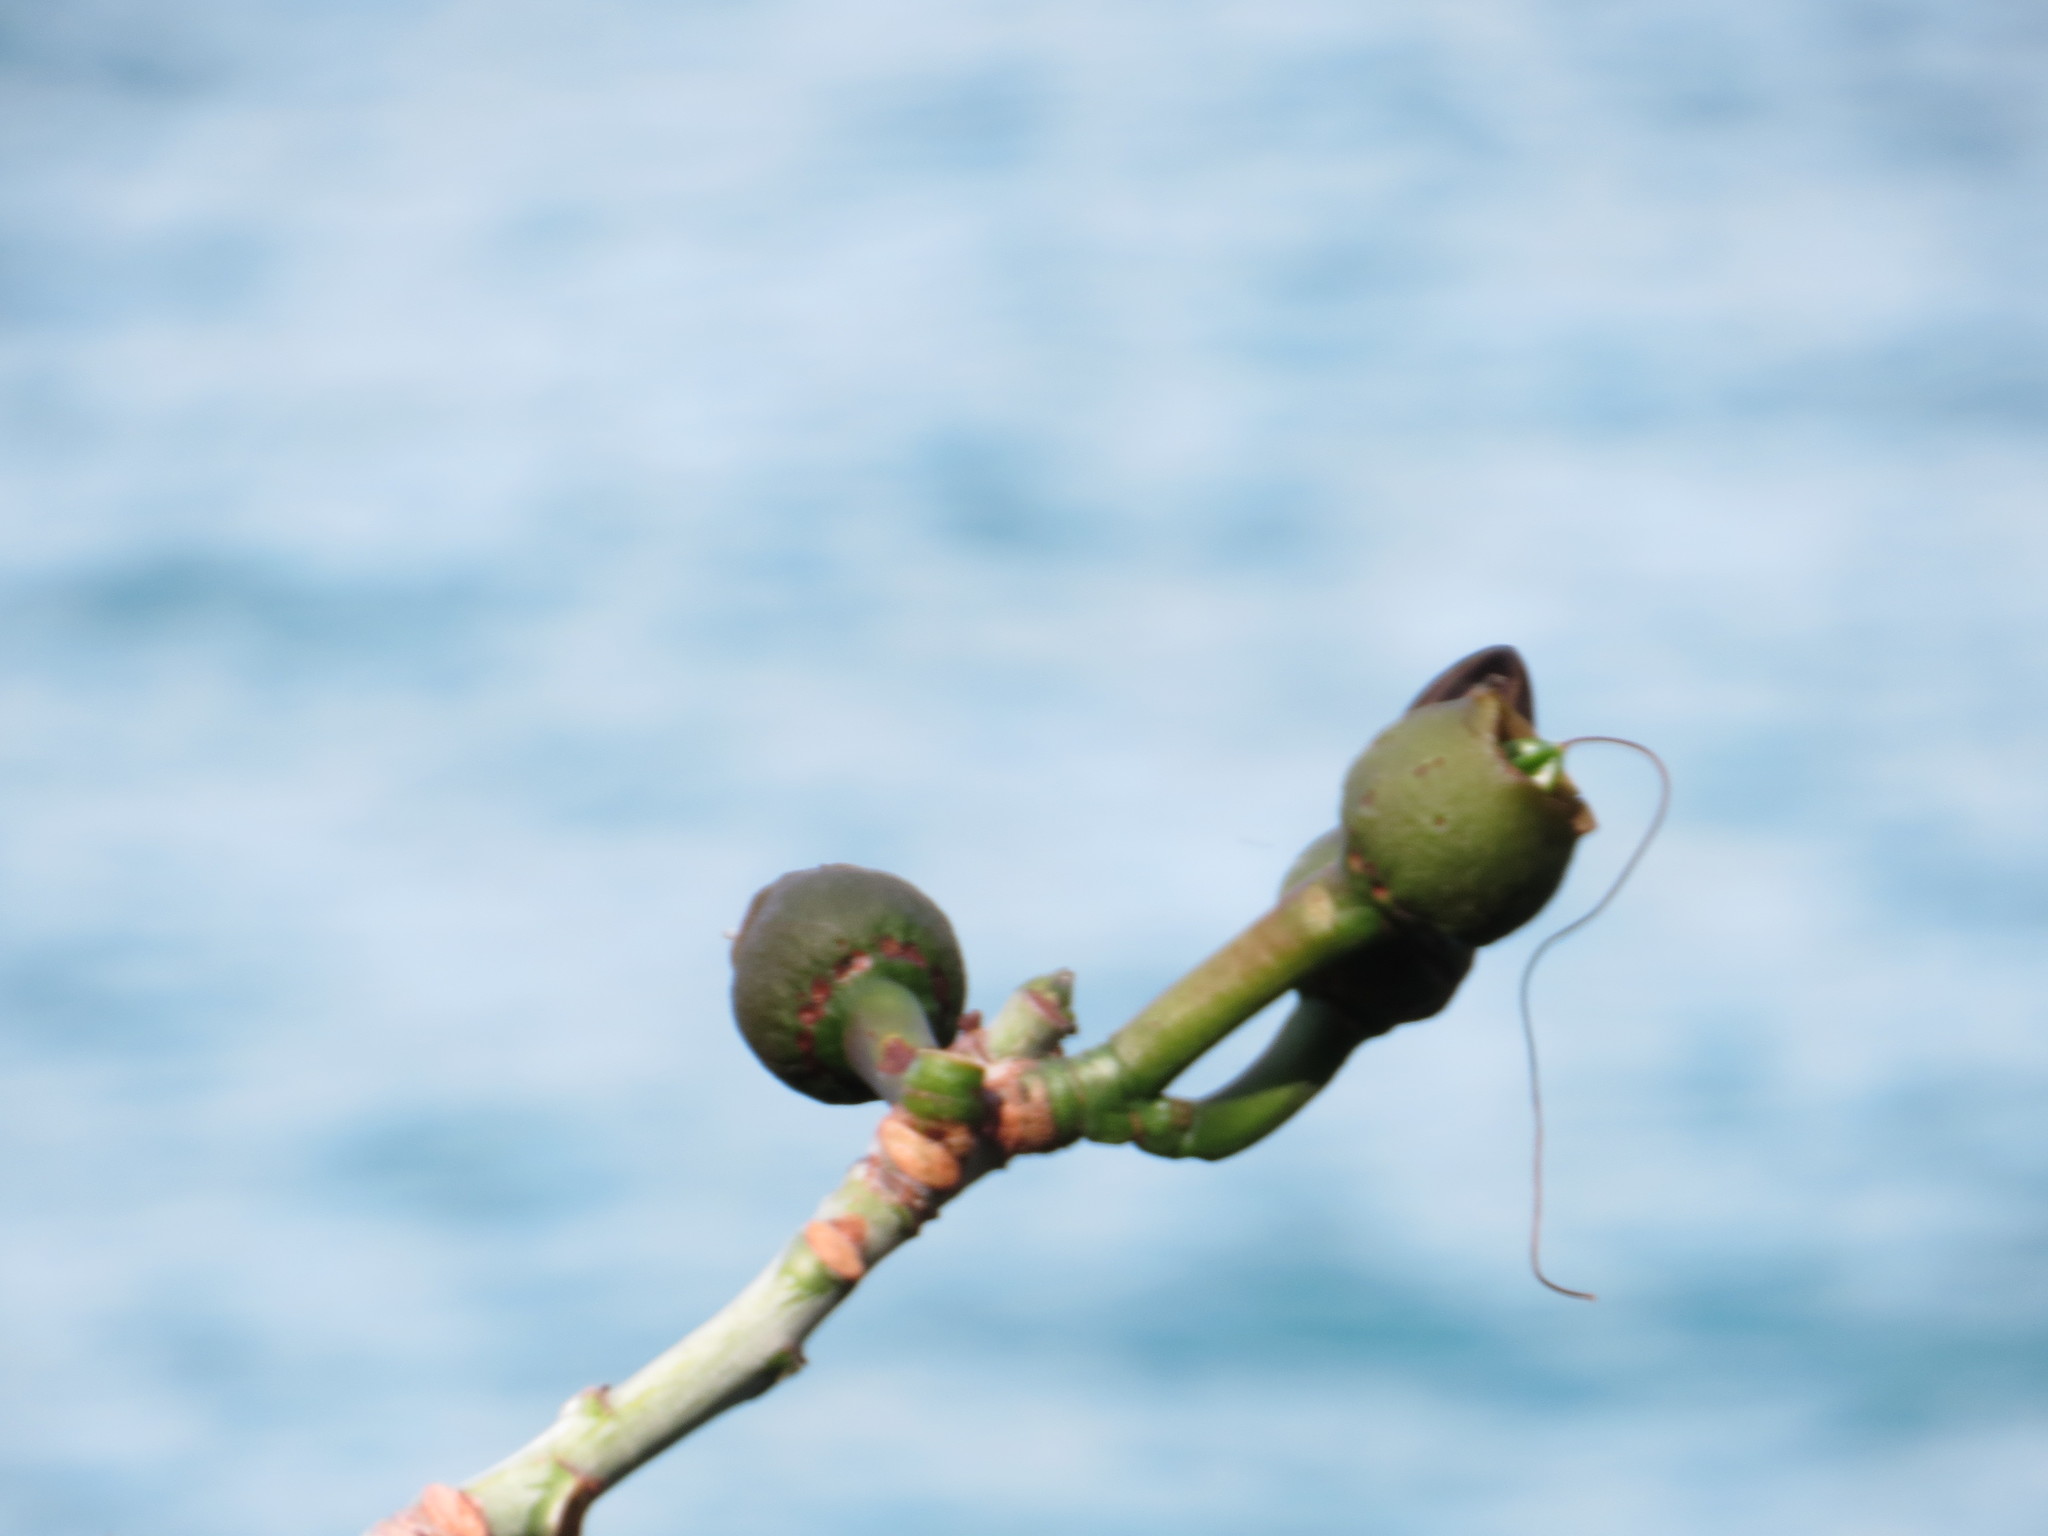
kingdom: Plantae
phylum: Tracheophyta
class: Magnoliopsida
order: Malvales
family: Malvaceae
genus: Pseudobombax
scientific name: Pseudobombax grandiflorum
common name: Brazilian shaving-brush-tree
